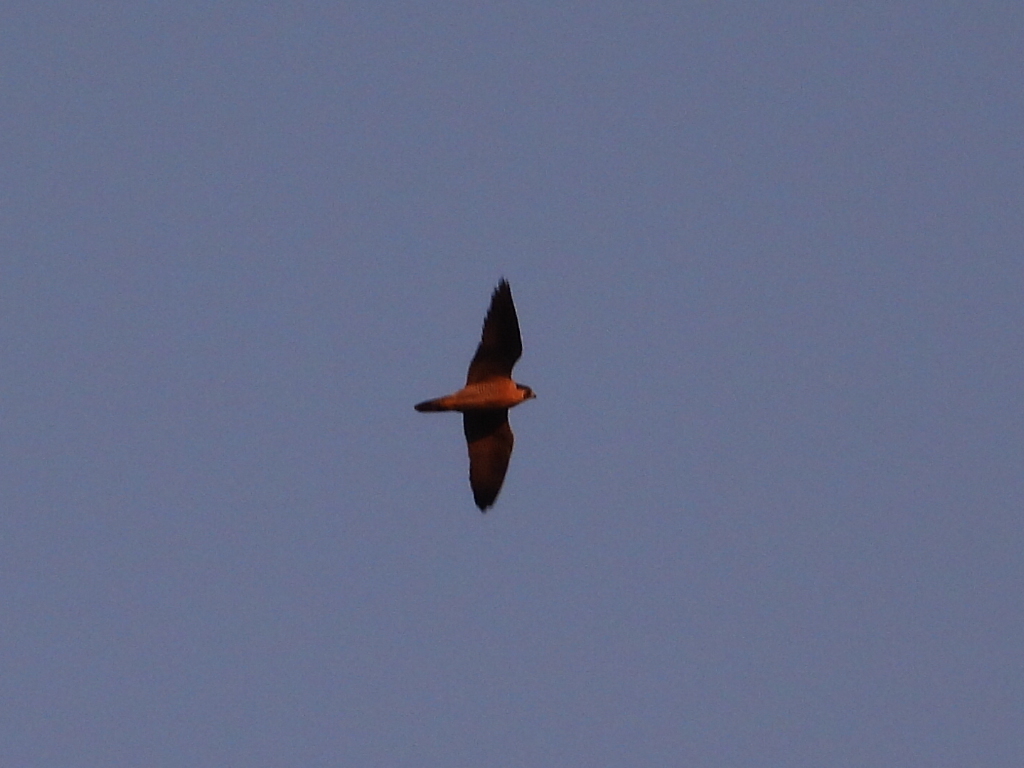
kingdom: Animalia
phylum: Chordata
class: Aves
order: Falconiformes
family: Falconidae
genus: Falco
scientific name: Falco peregrinus
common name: Peregrine falcon
